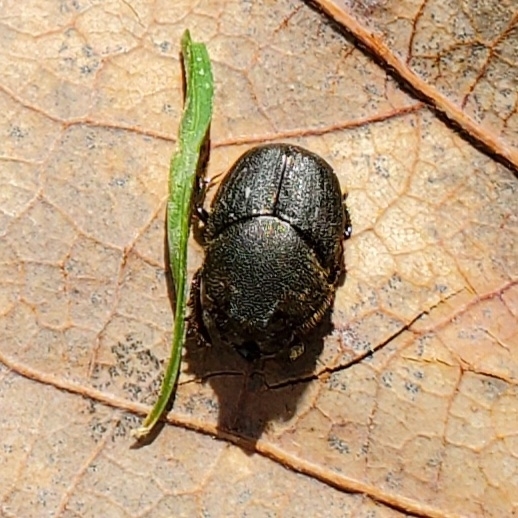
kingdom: Animalia
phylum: Arthropoda
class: Insecta
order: Coleoptera
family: Scarabaeidae
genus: Onthophagus
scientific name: Onthophagus hecate
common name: Scooped scarab
